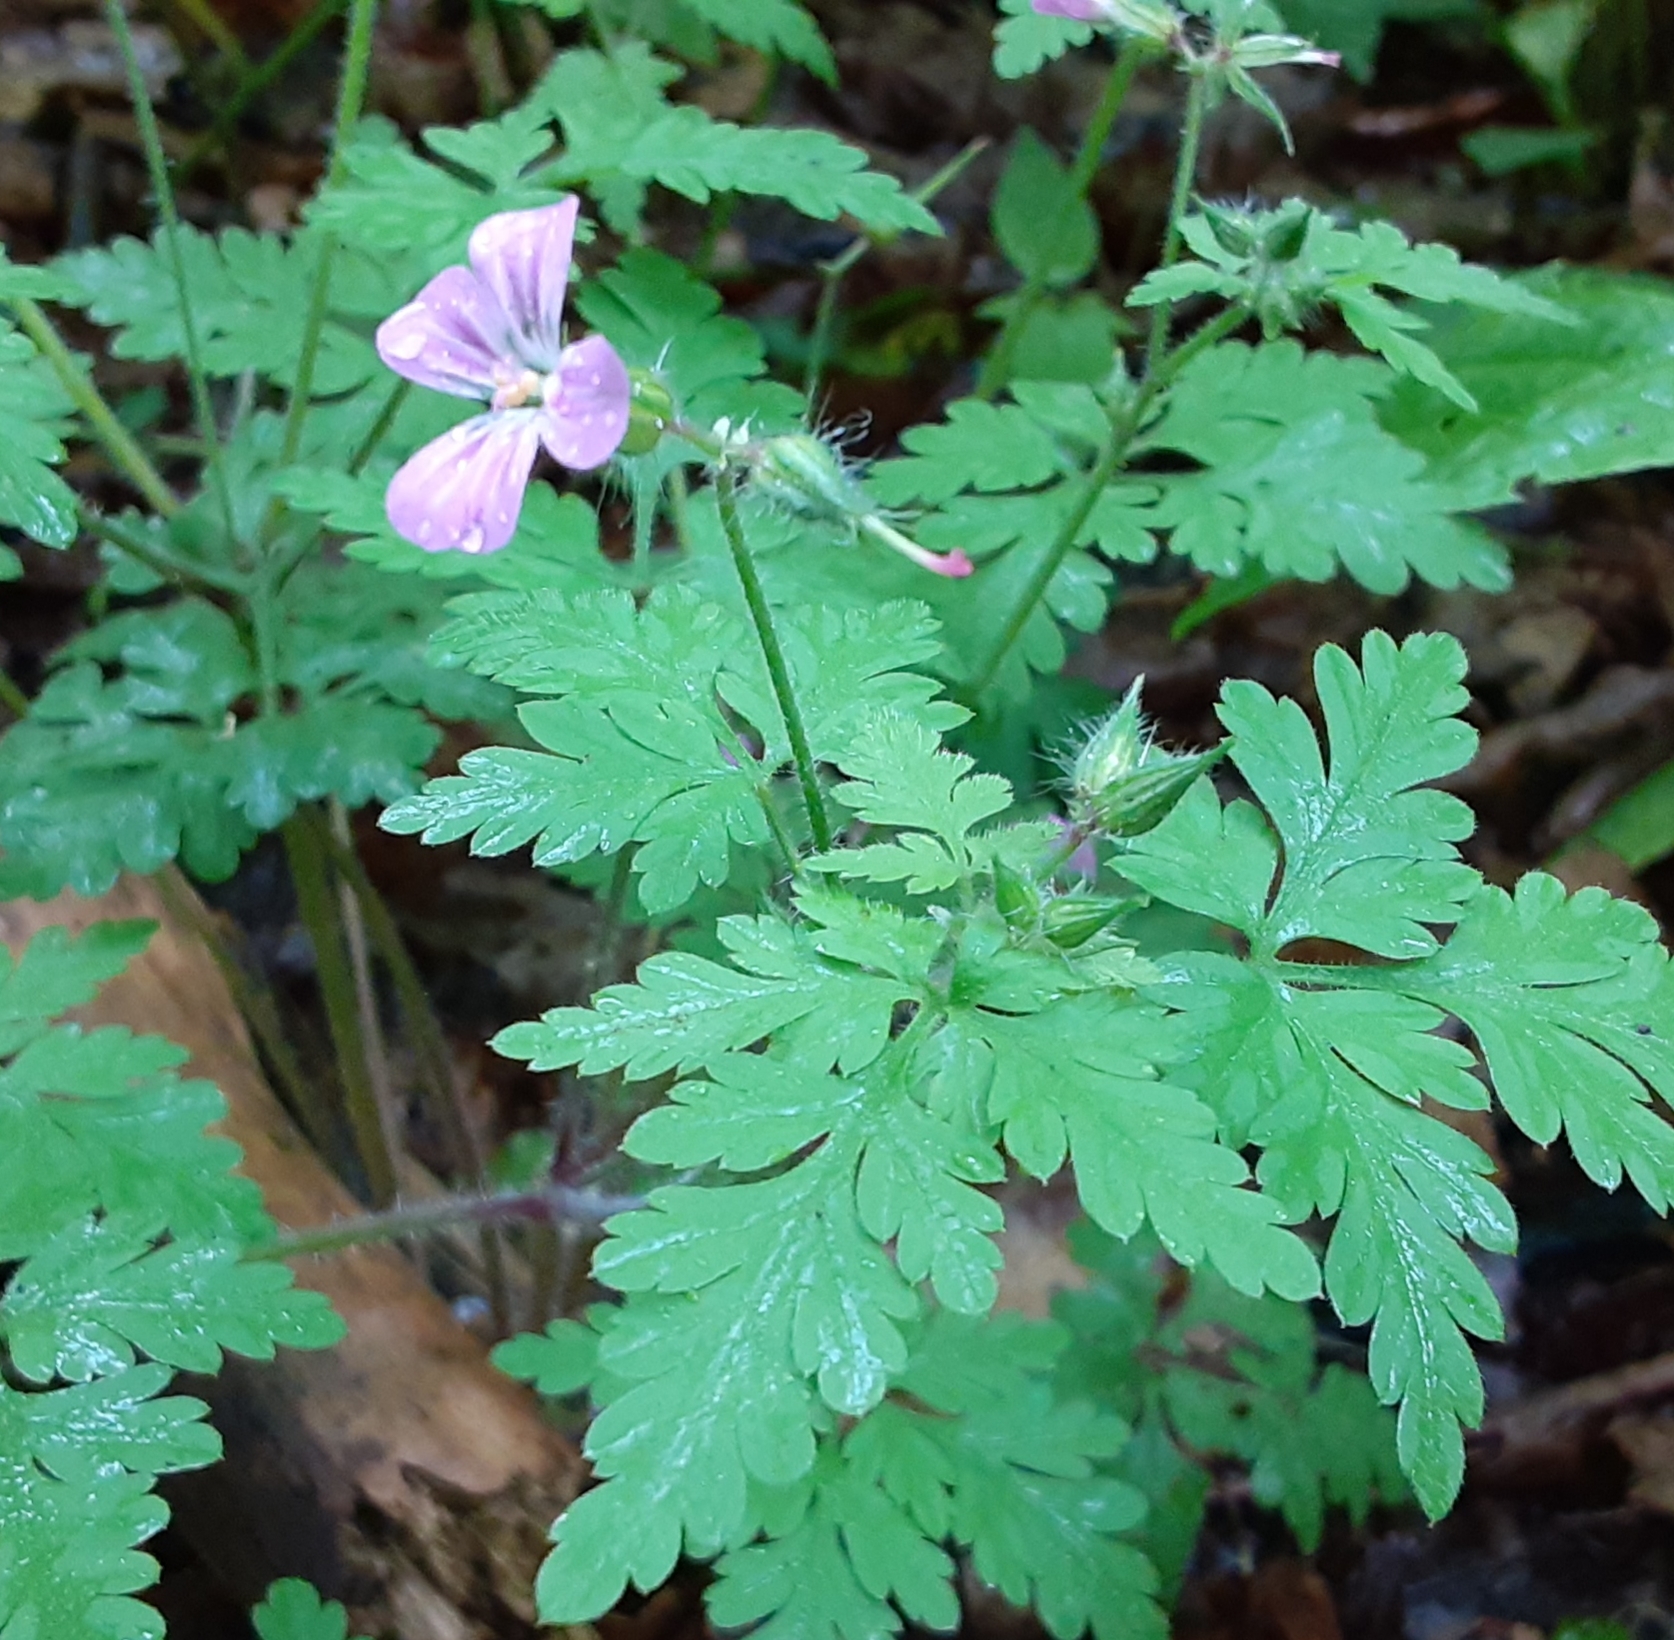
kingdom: Plantae
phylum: Tracheophyta
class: Magnoliopsida
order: Geraniales
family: Geraniaceae
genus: Geranium
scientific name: Geranium robertianum
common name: Herb-robert
